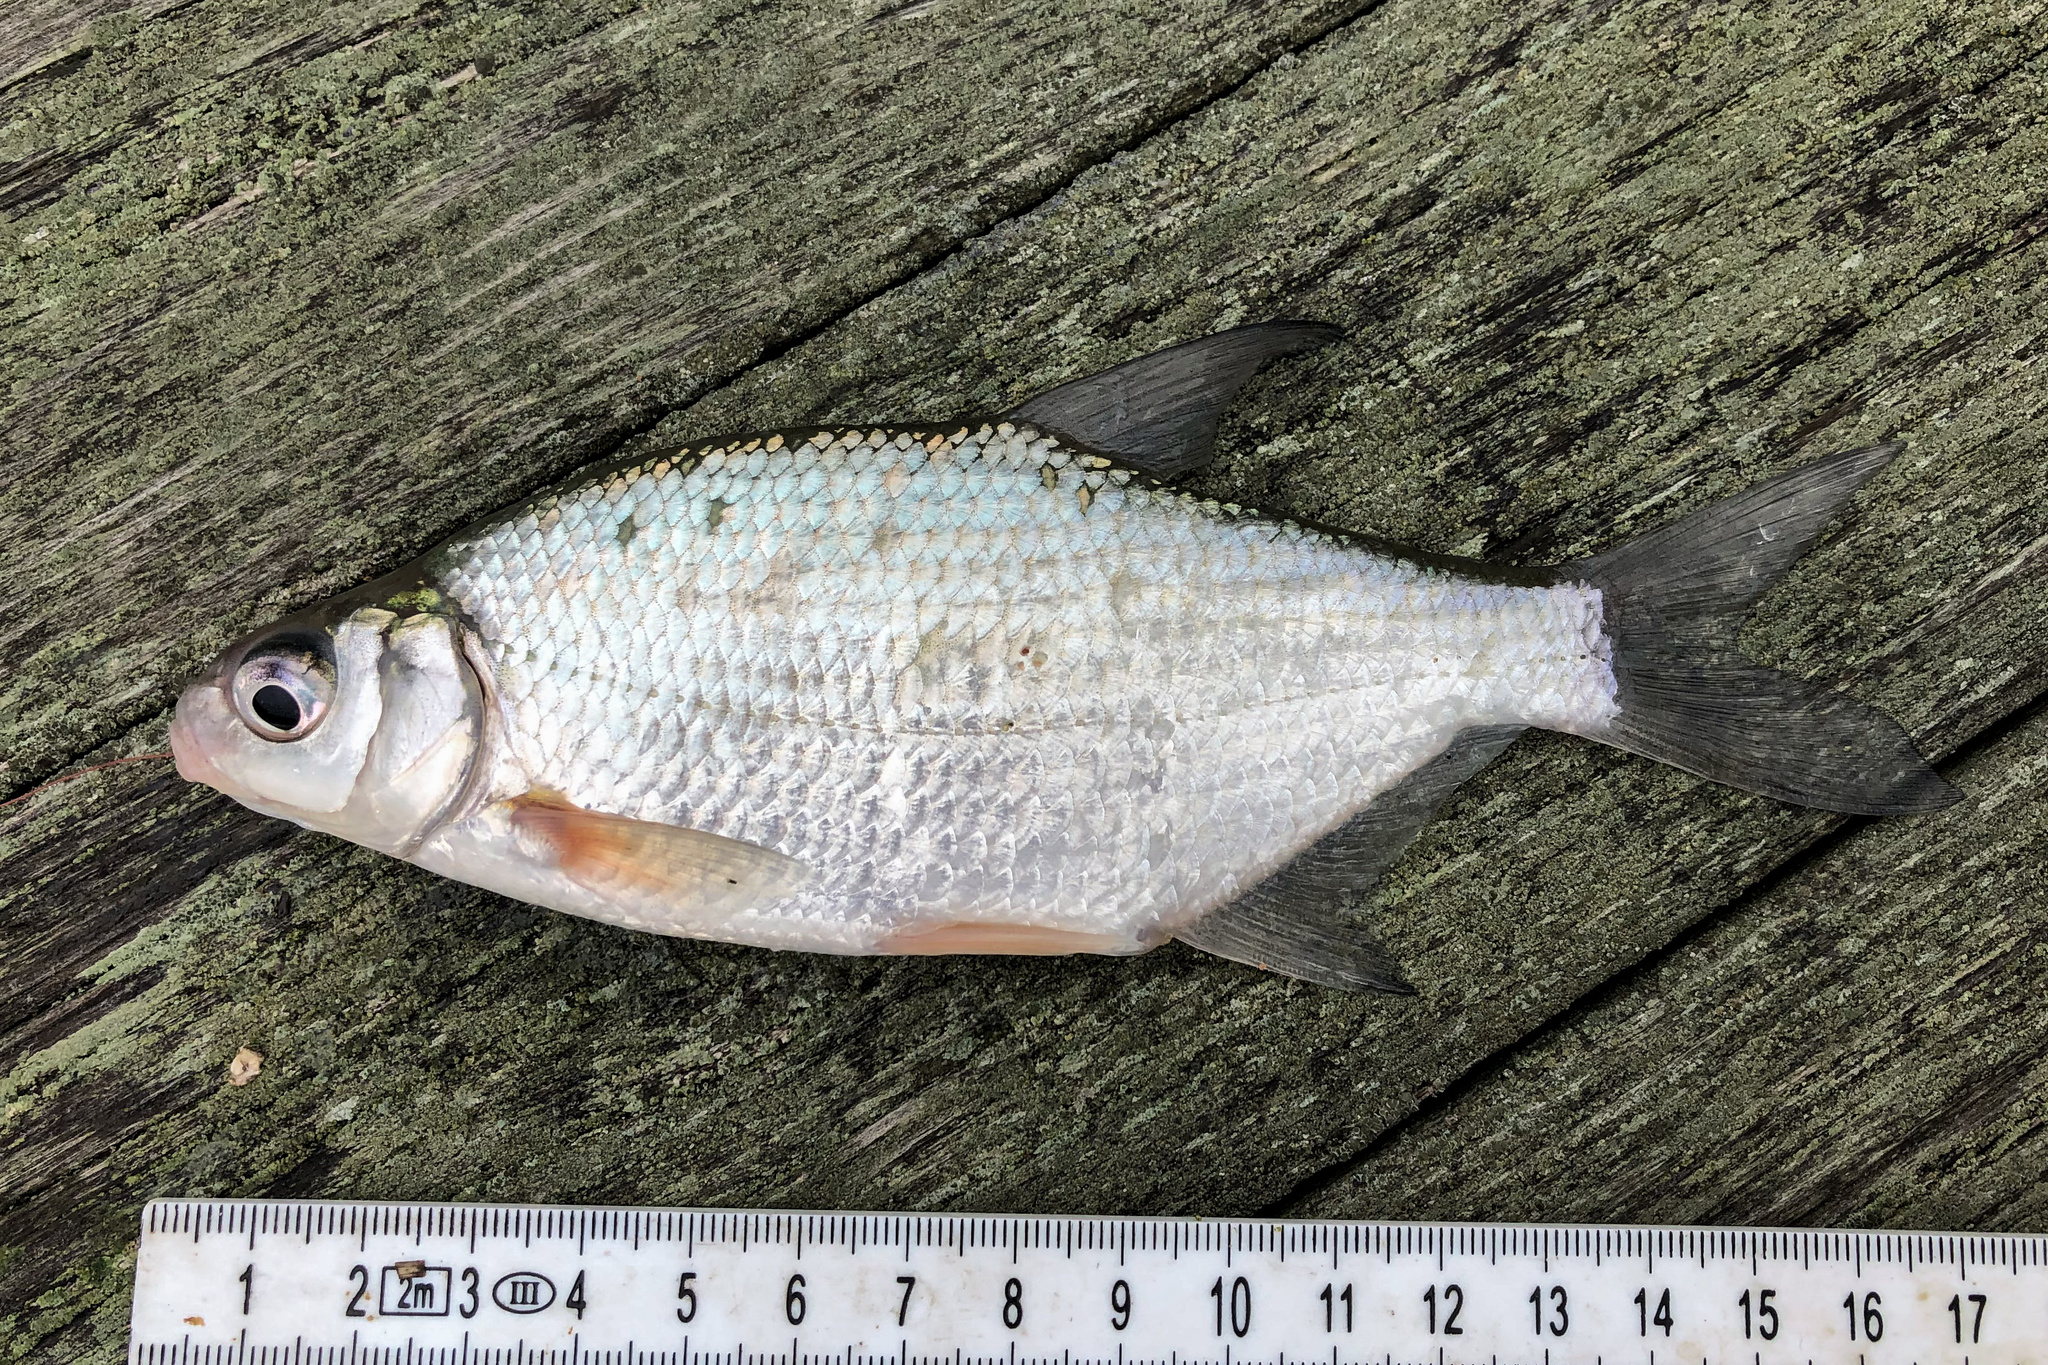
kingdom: Animalia
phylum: Chordata
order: Cypriniformes
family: Cyprinidae
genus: Blicca
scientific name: Blicca bjoerkna
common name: White bream
